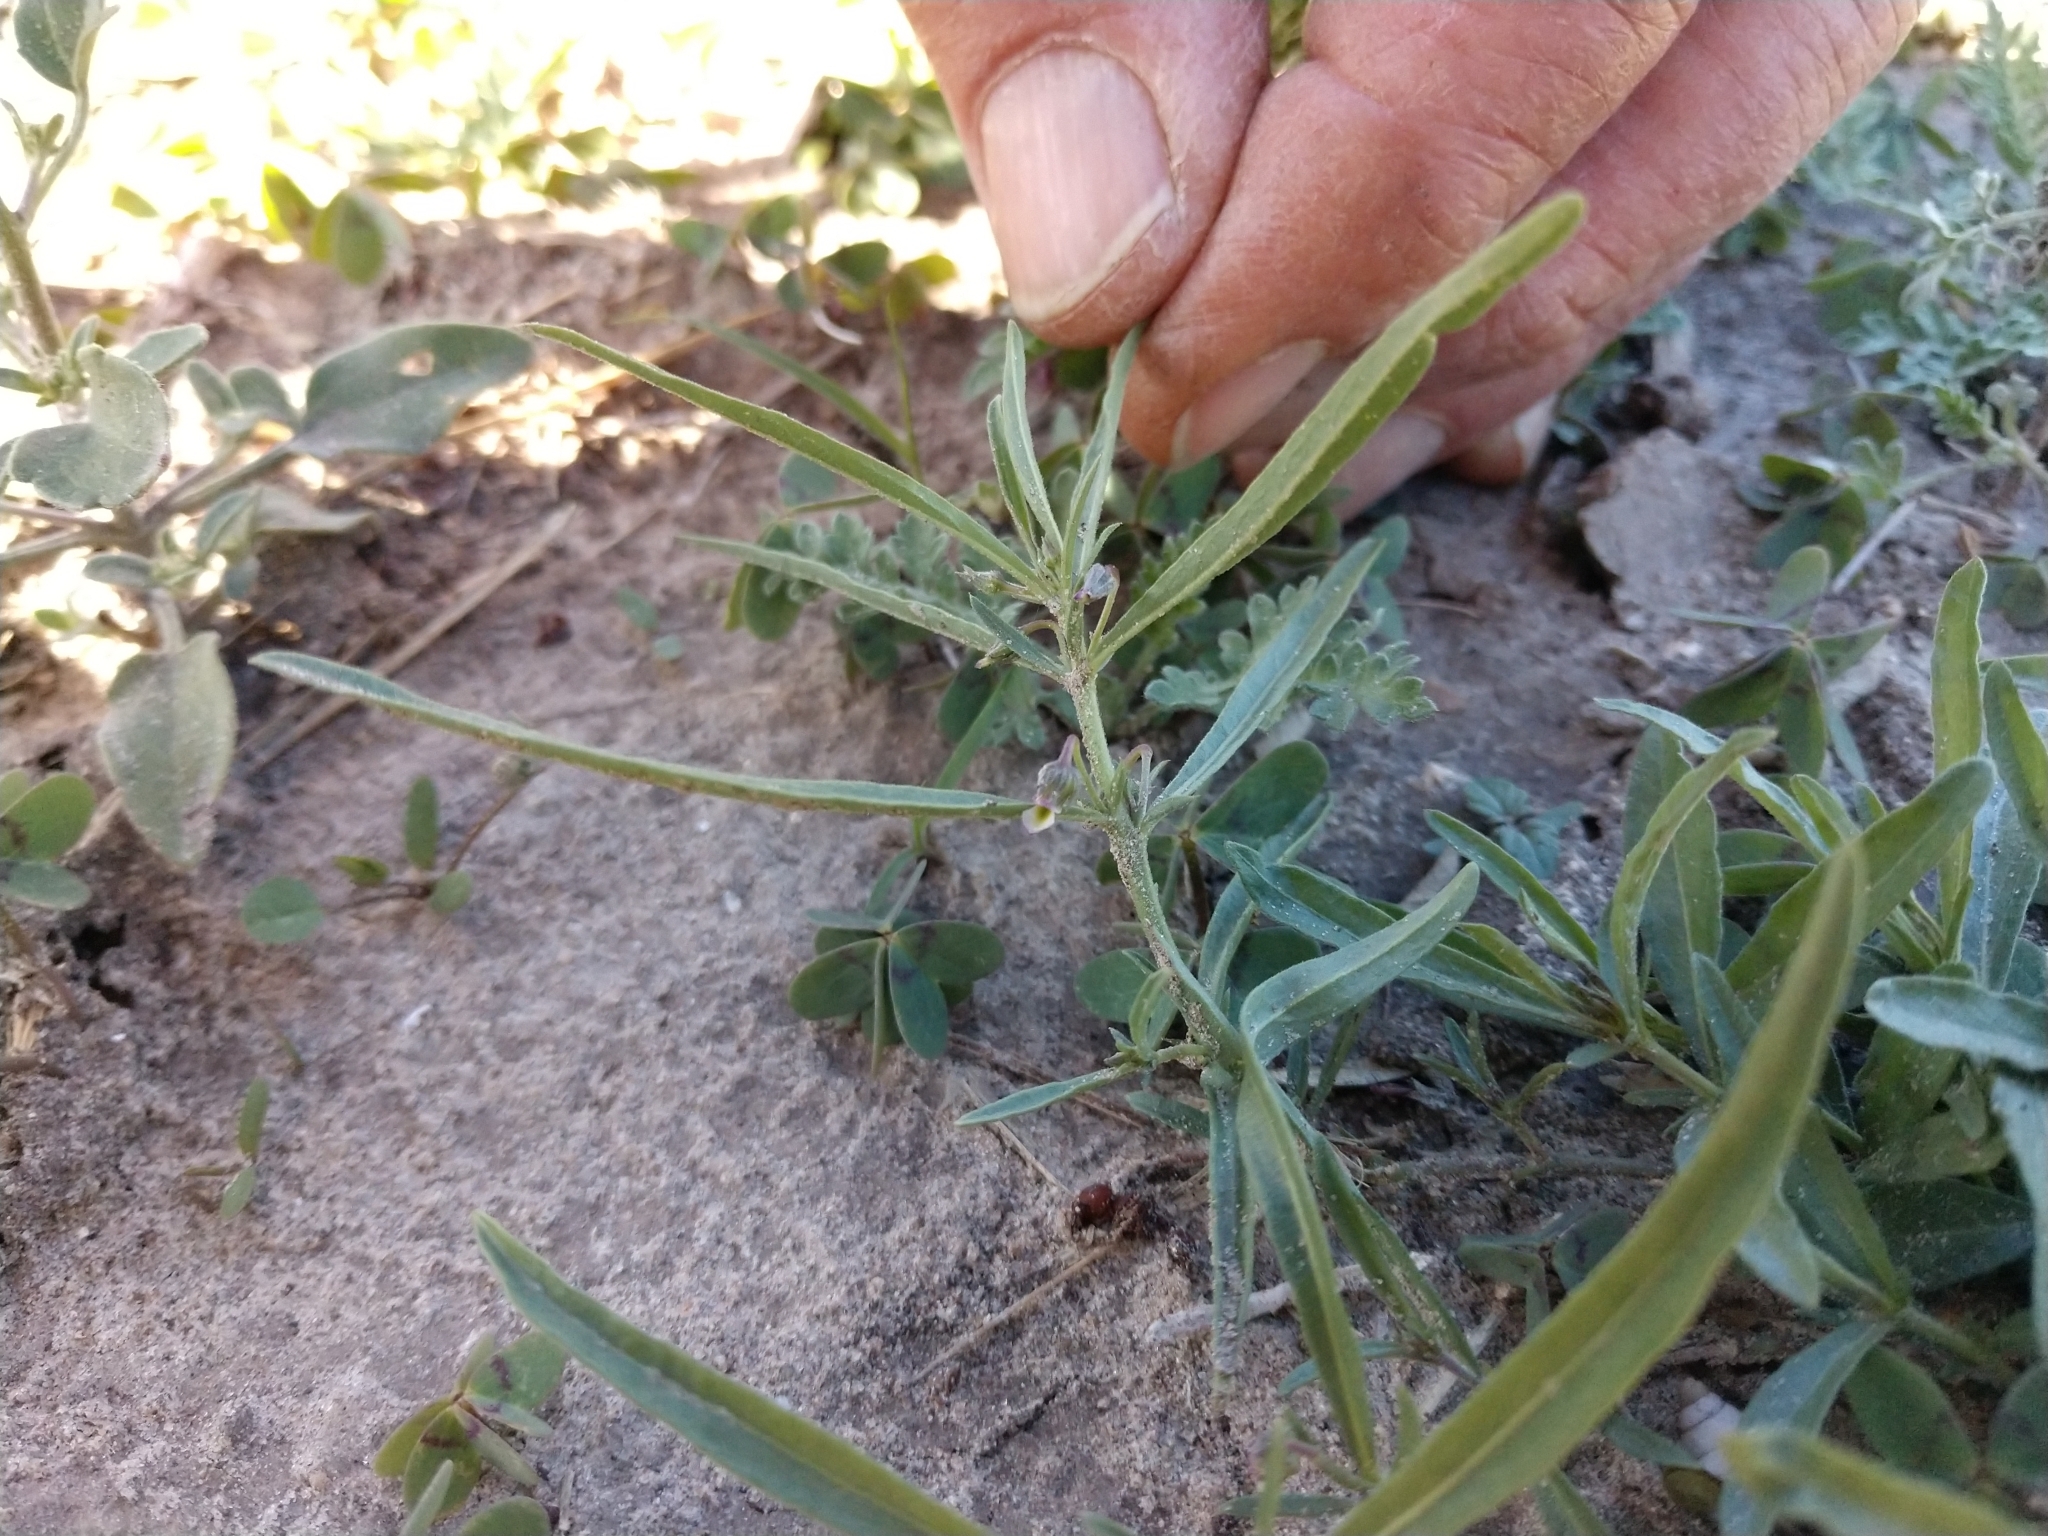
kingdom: Plantae
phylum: Tracheophyta
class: Magnoliopsida
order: Malpighiales
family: Violaceae
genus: Pombalia
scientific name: Pombalia verticillata
